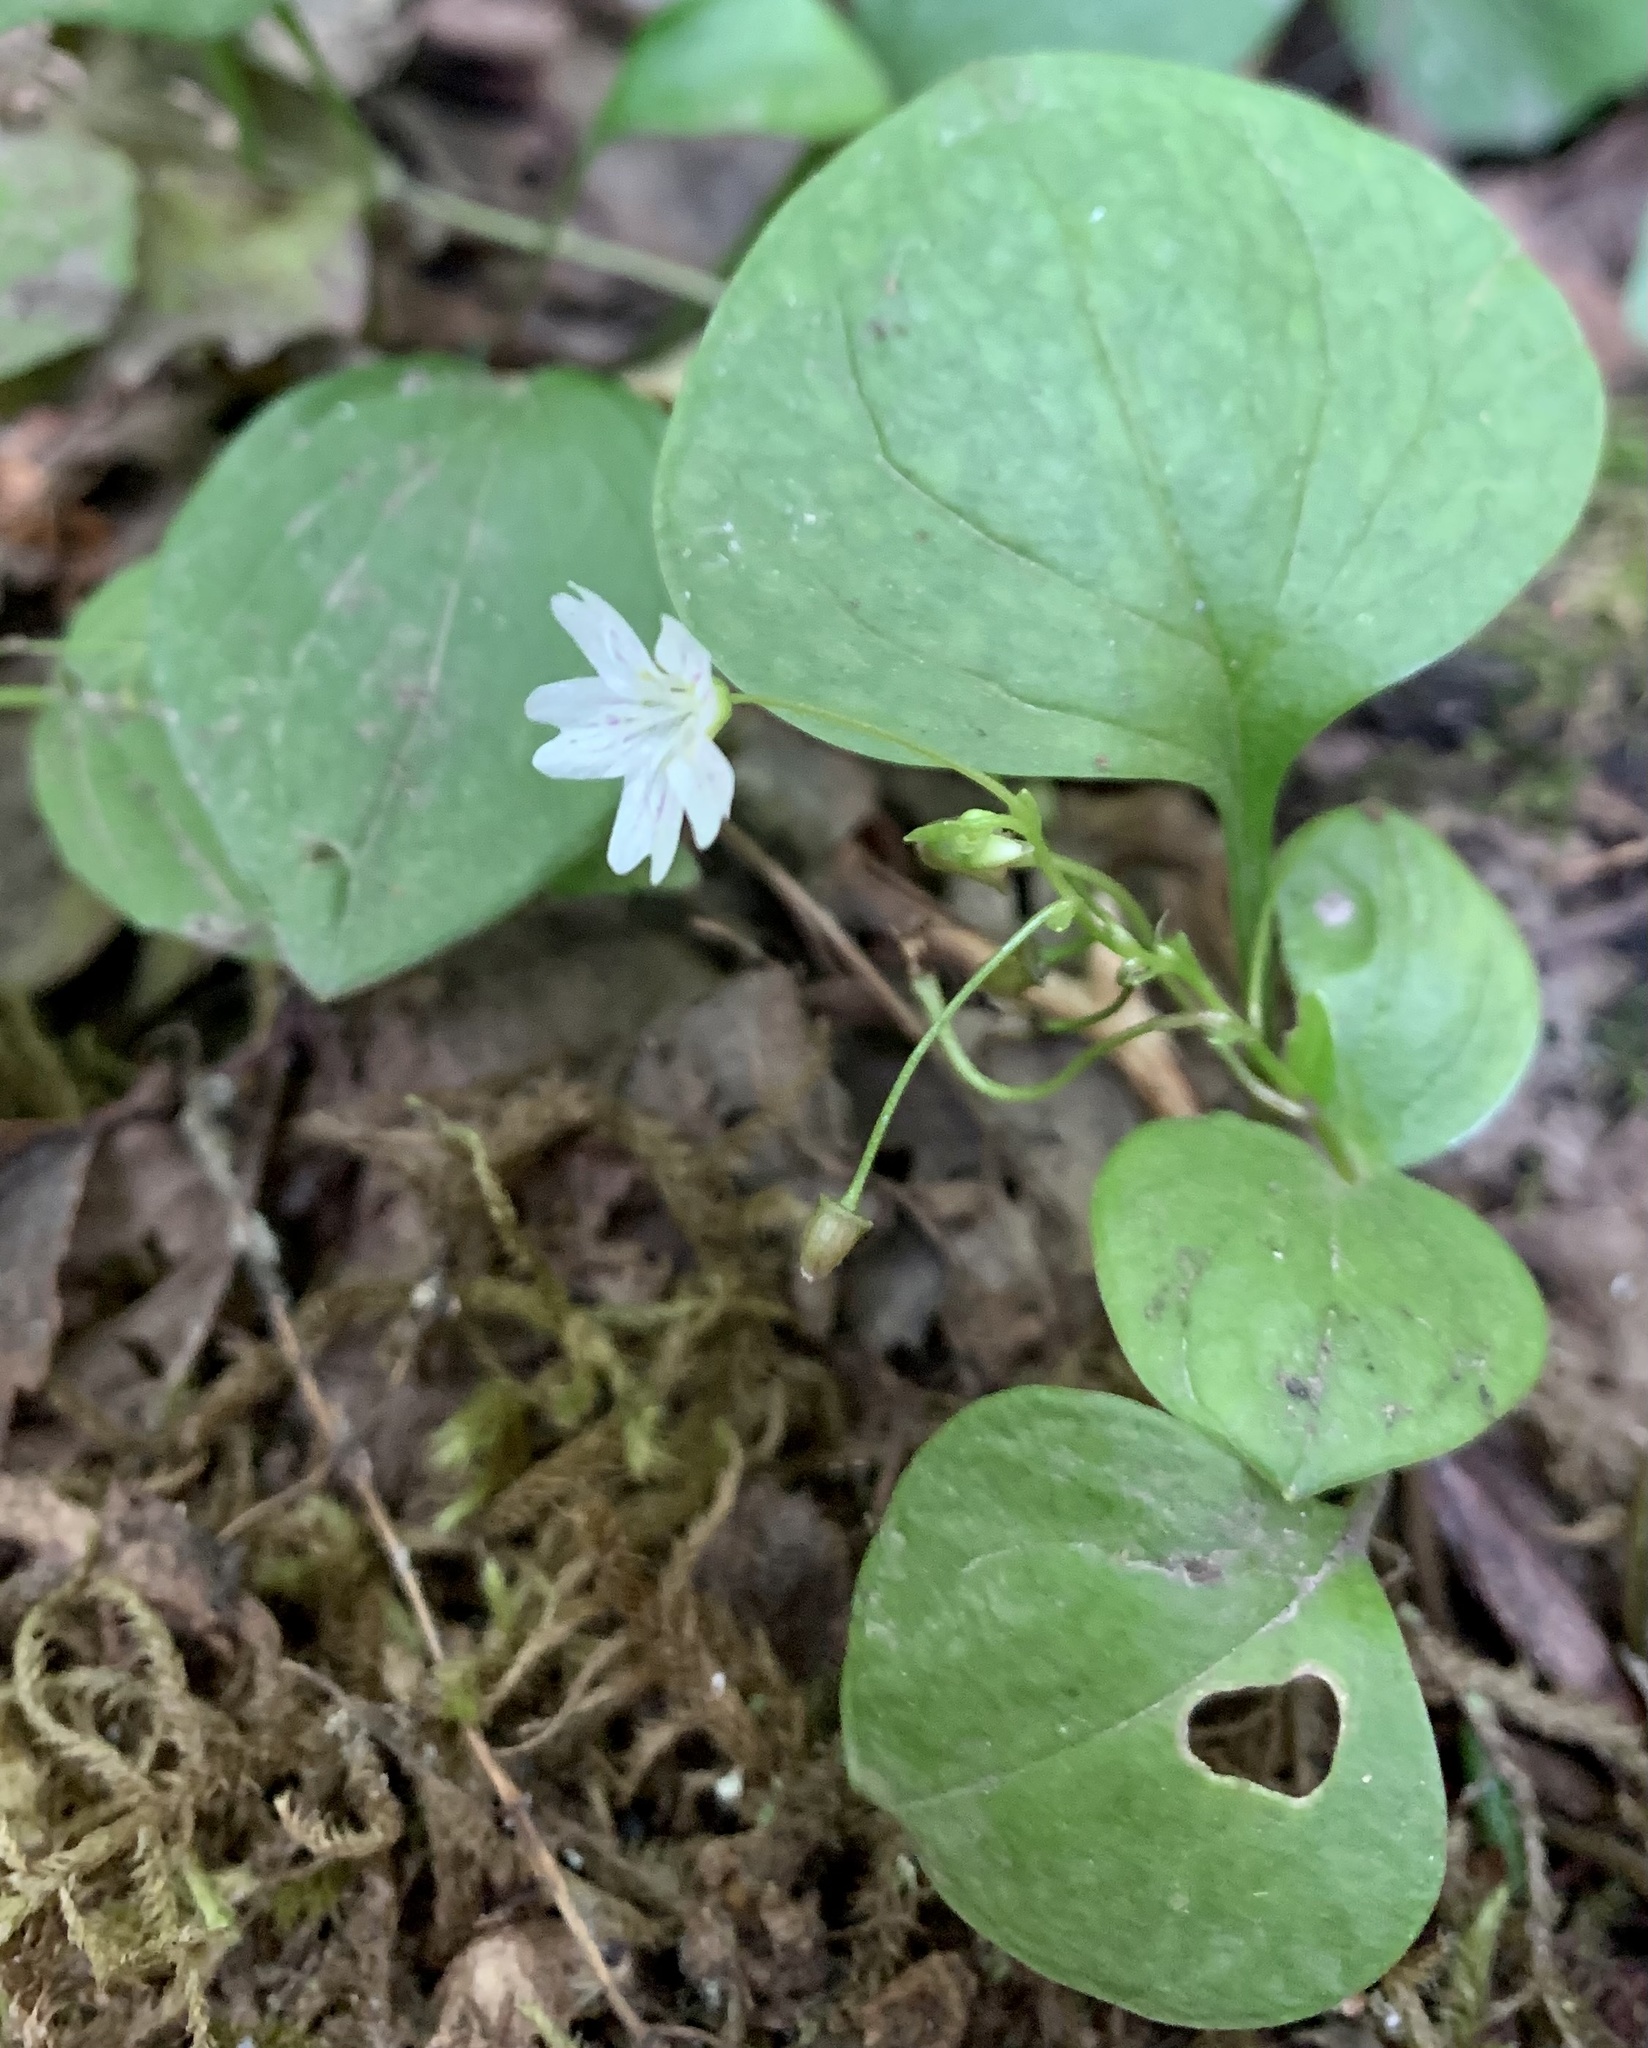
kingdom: Plantae
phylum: Tracheophyta
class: Magnoliopsida
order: Caryophyllales
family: Montiaceae
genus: Claytonia
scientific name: Claytonia sibirica
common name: Pink purslane
